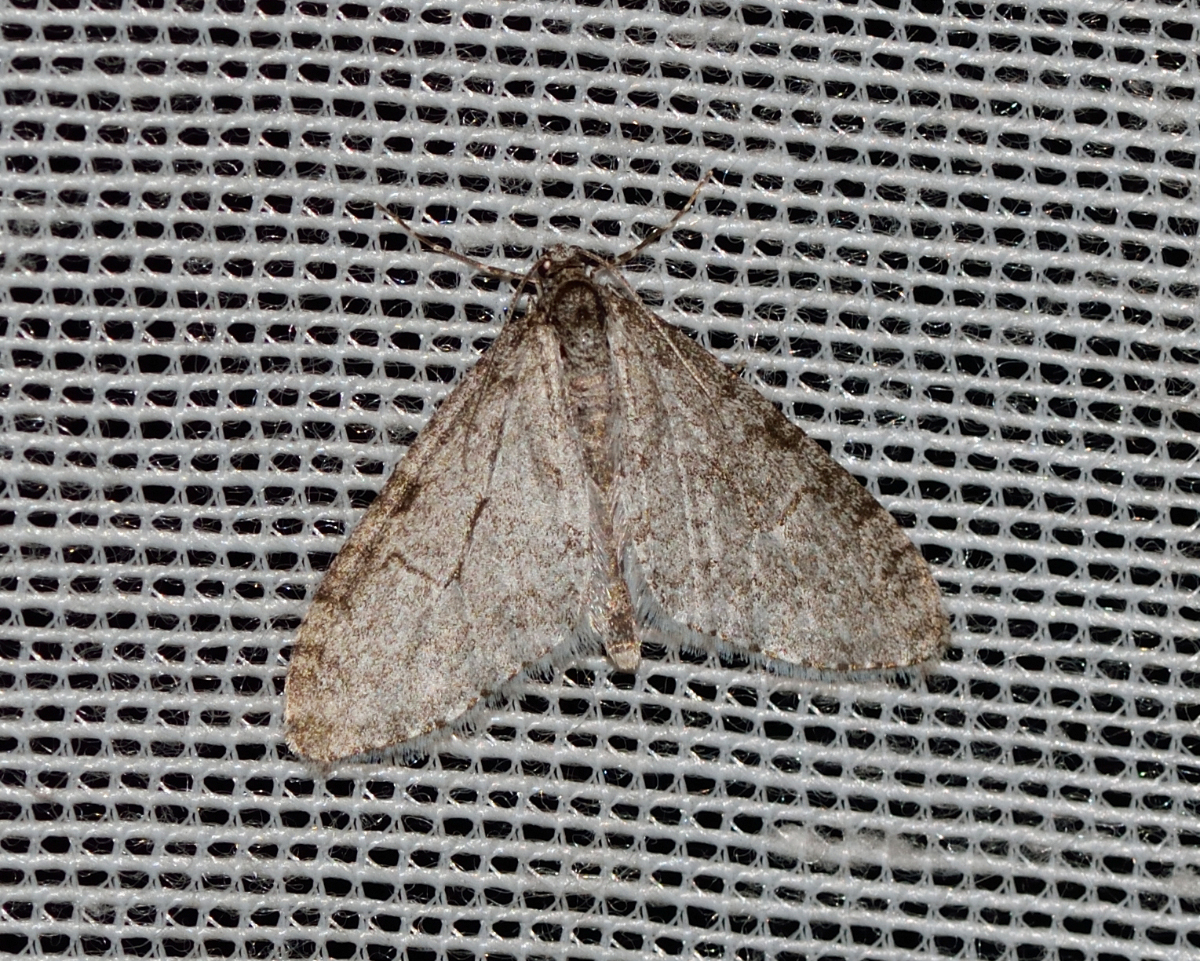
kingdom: Animalia
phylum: Arthropoda
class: Insecta
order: Lepidoptera
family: Geometridae
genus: Trichopteryx
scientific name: Trichopteryx carpinata
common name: Early tooth-striped
